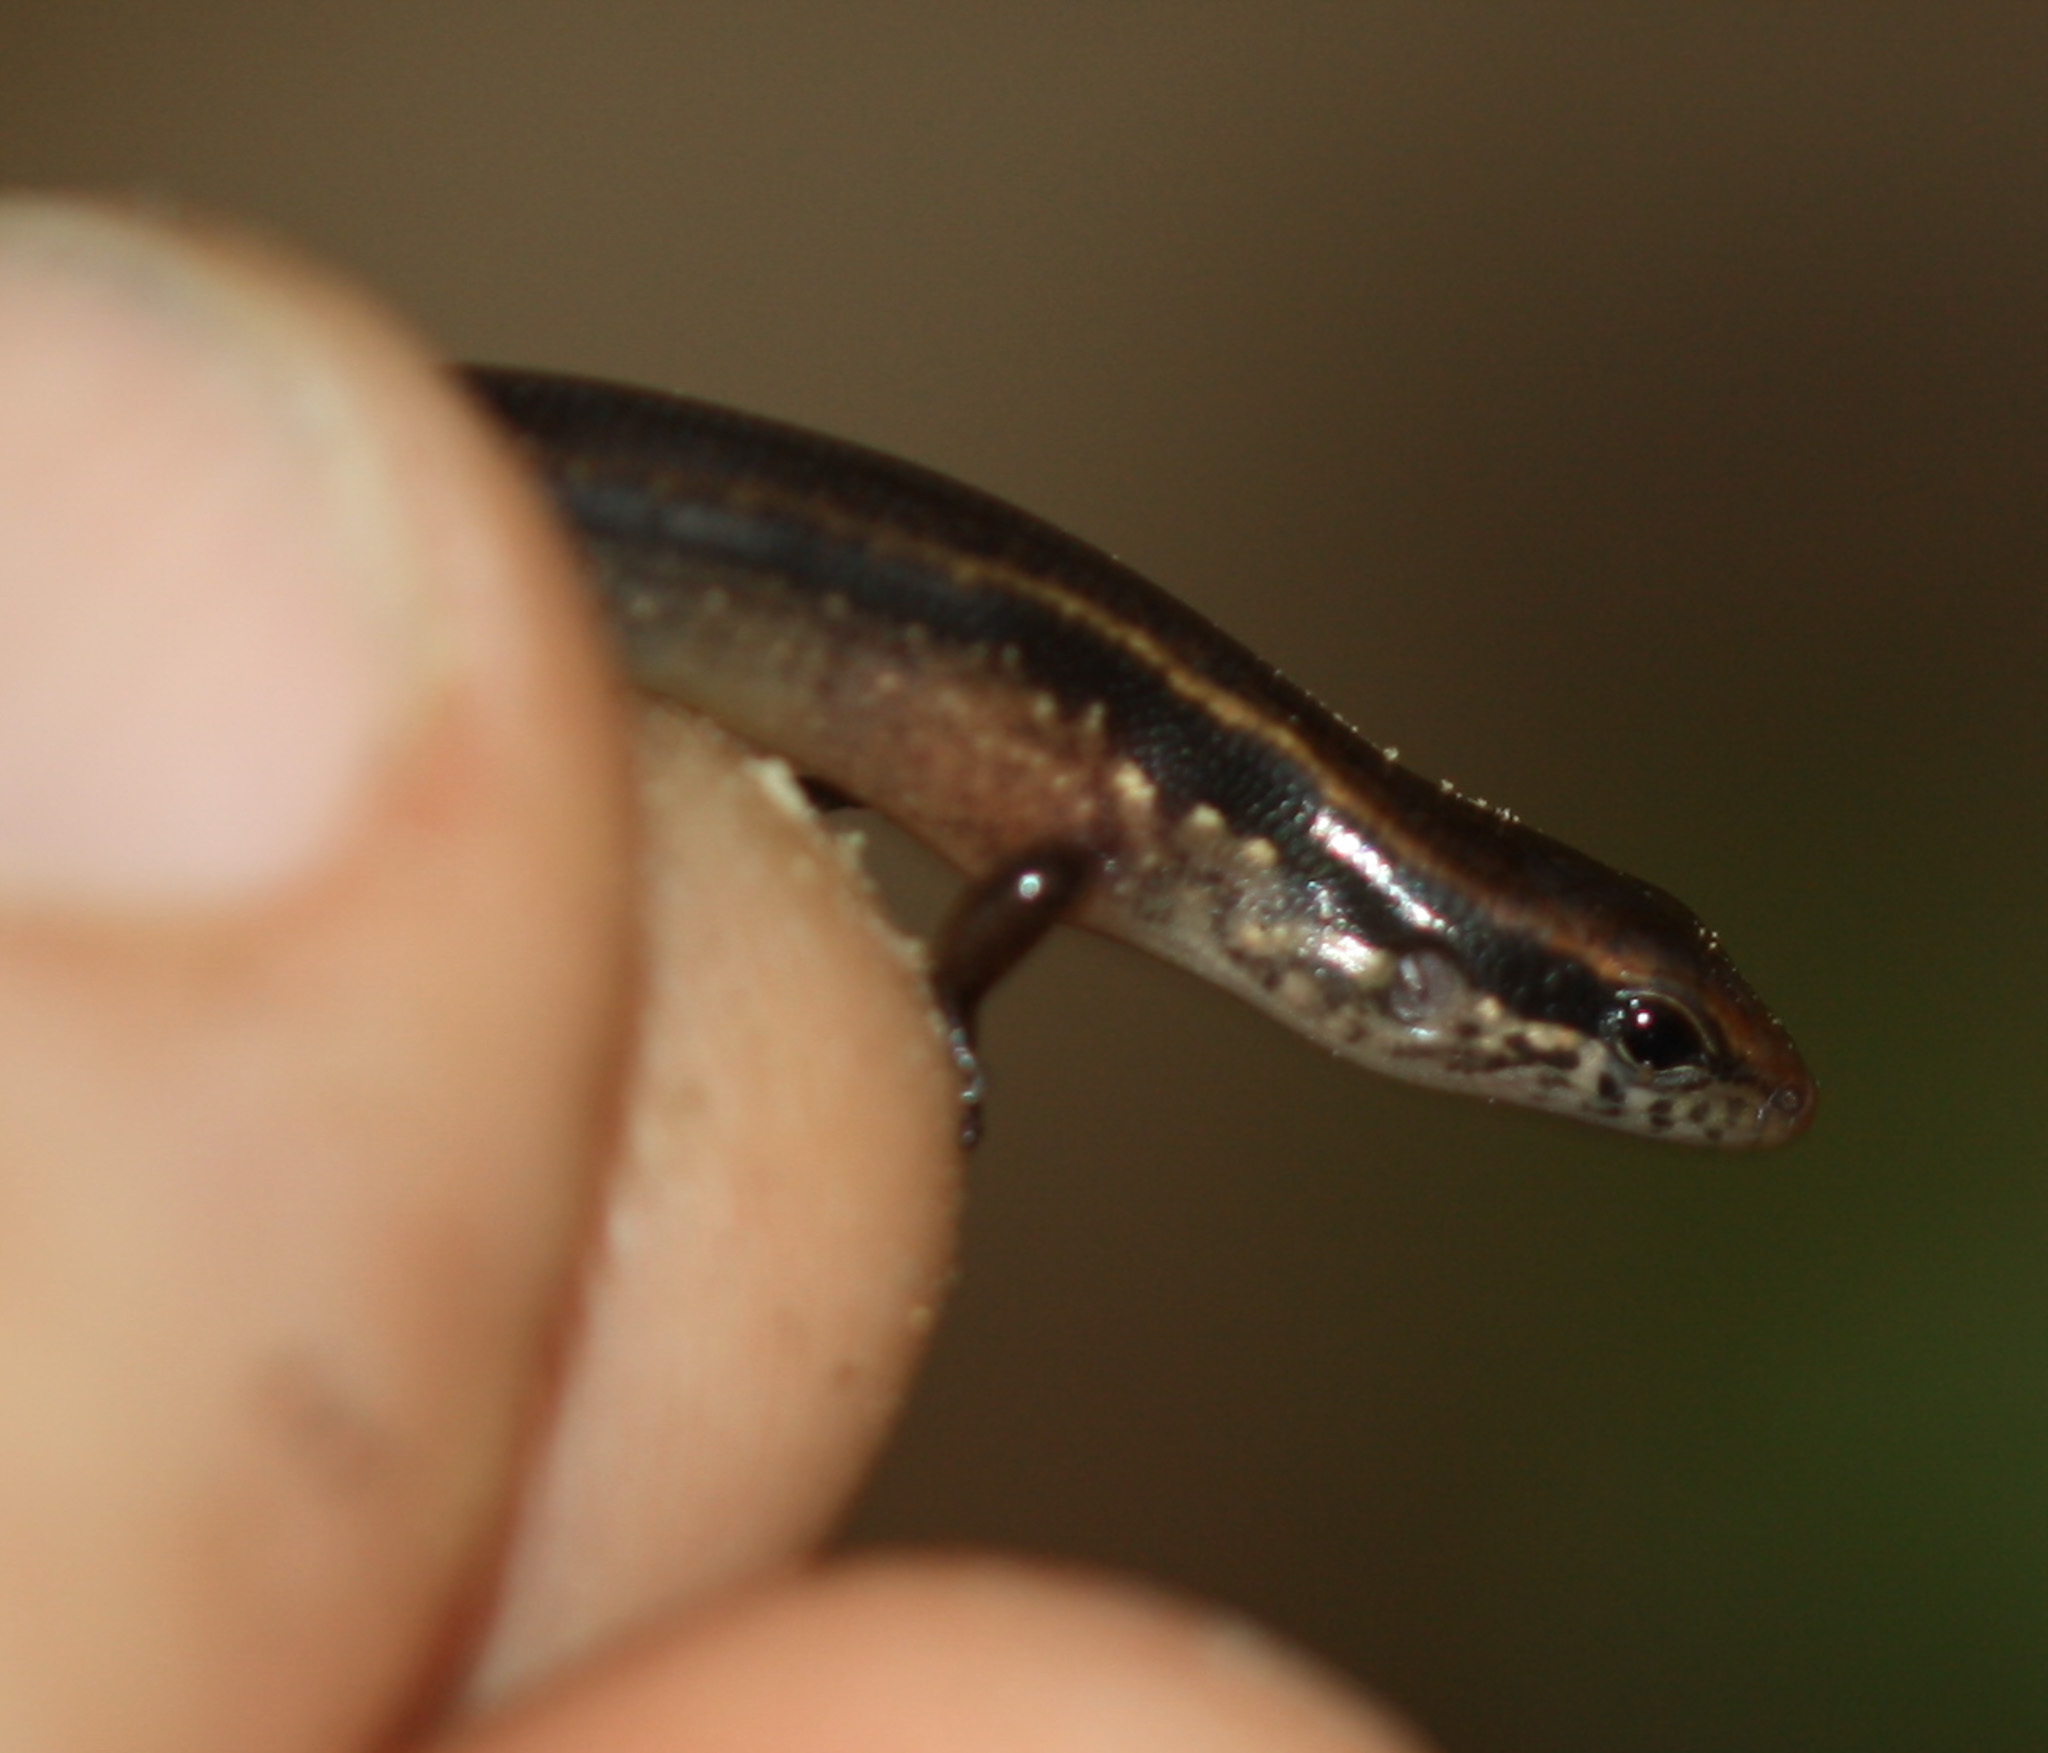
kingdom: Animalia
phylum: Chordata
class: Squamata
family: Scincidae
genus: Scincella
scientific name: Scincella cherriei
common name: Brown forest skink
